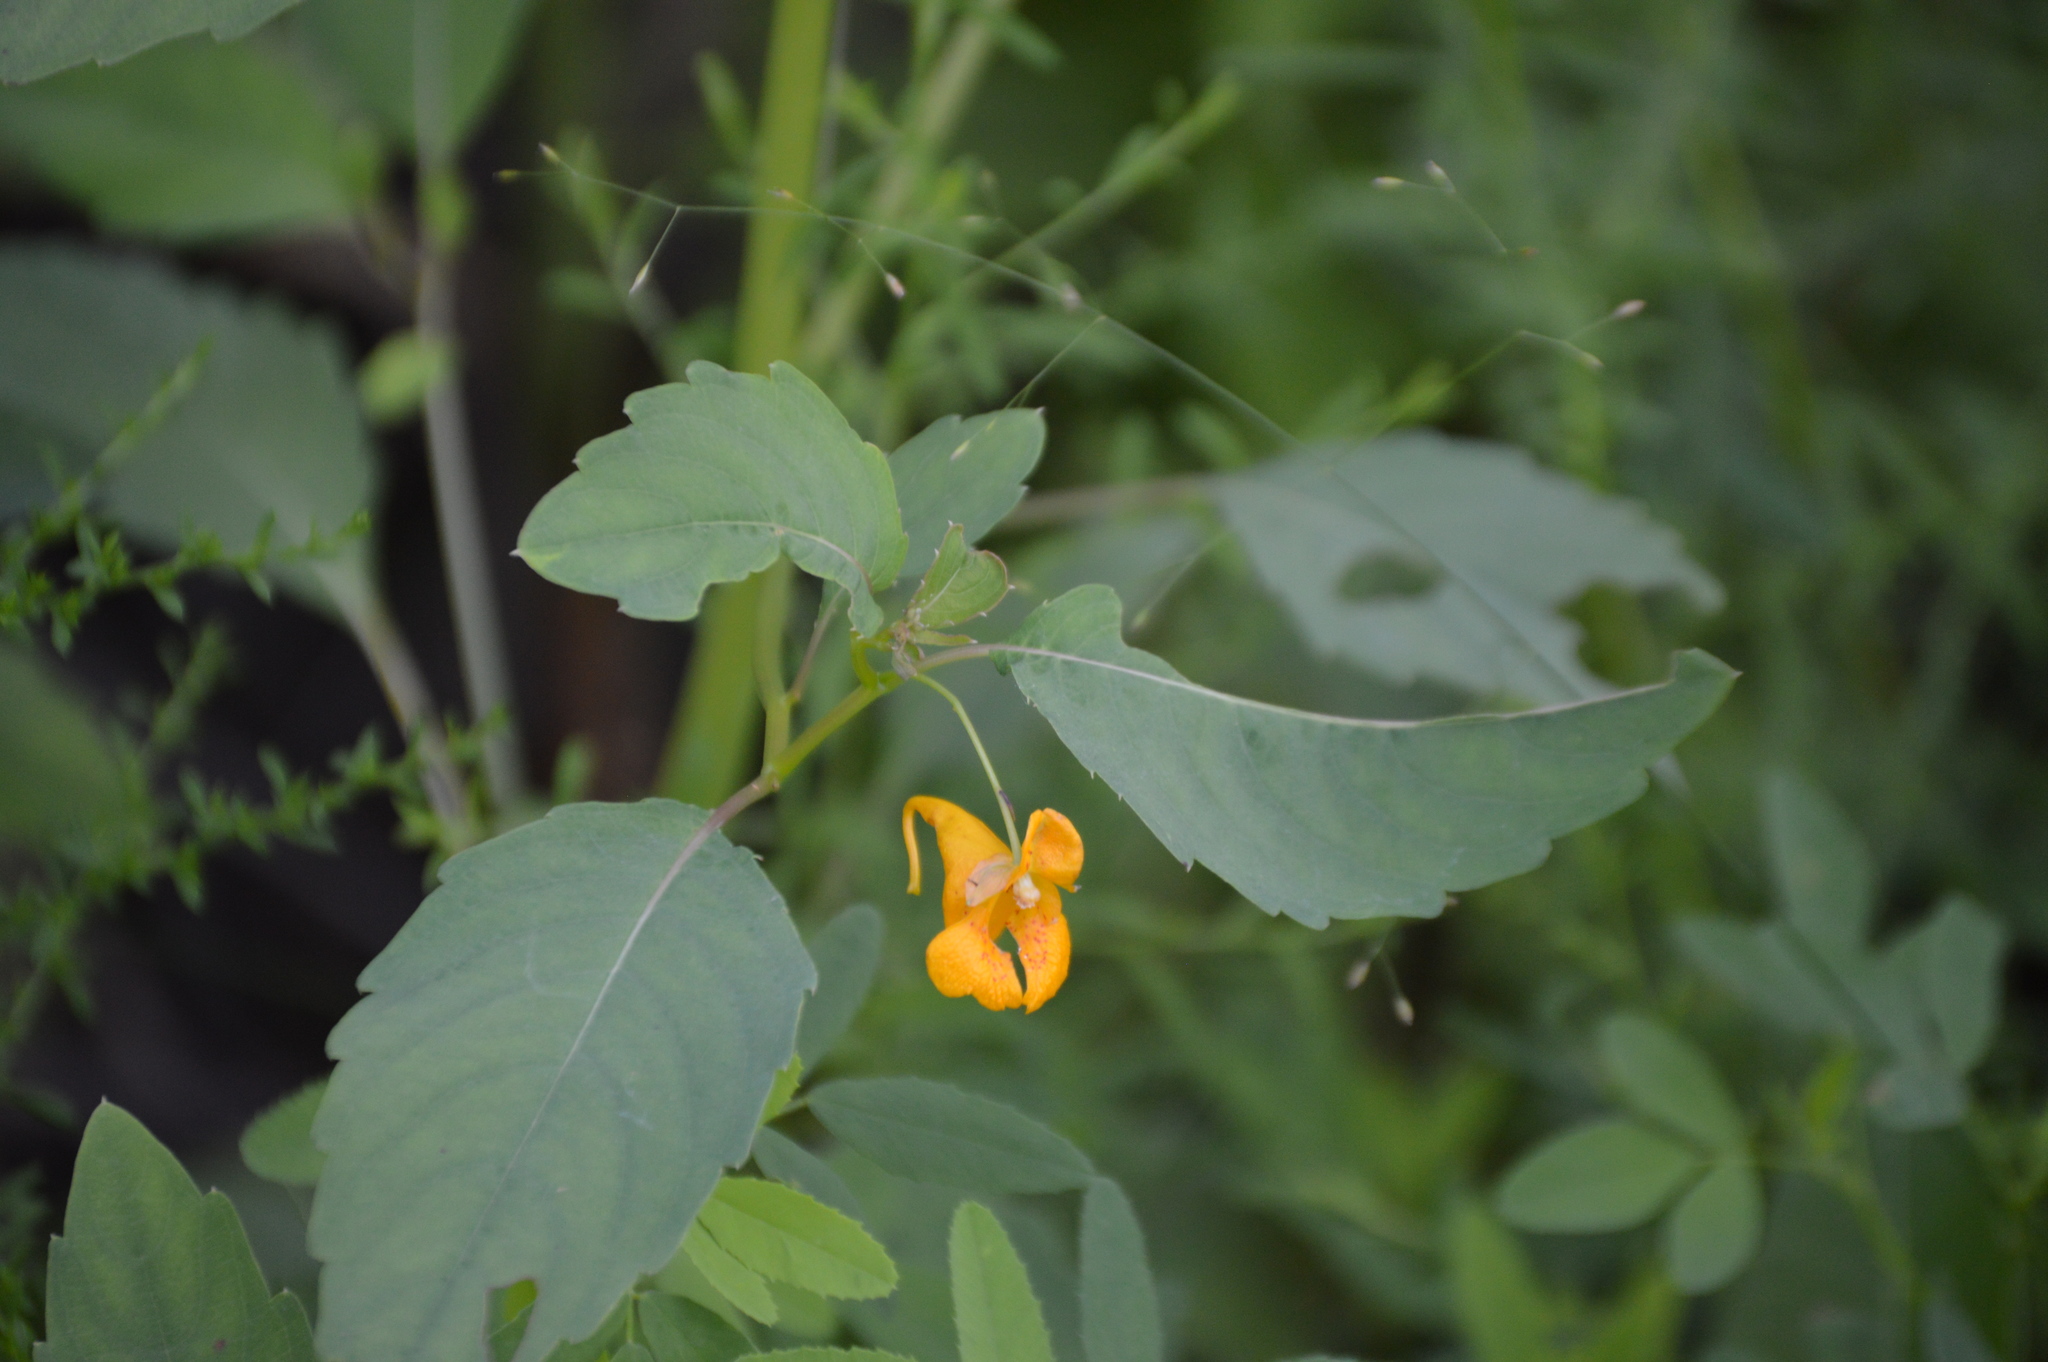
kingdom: Plantae
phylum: Tracheophyta
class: Magnoliopsida
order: Ericales
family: Balsaminaceae
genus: Impatiens
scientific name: Impatiens capensis
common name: Orange balsam
